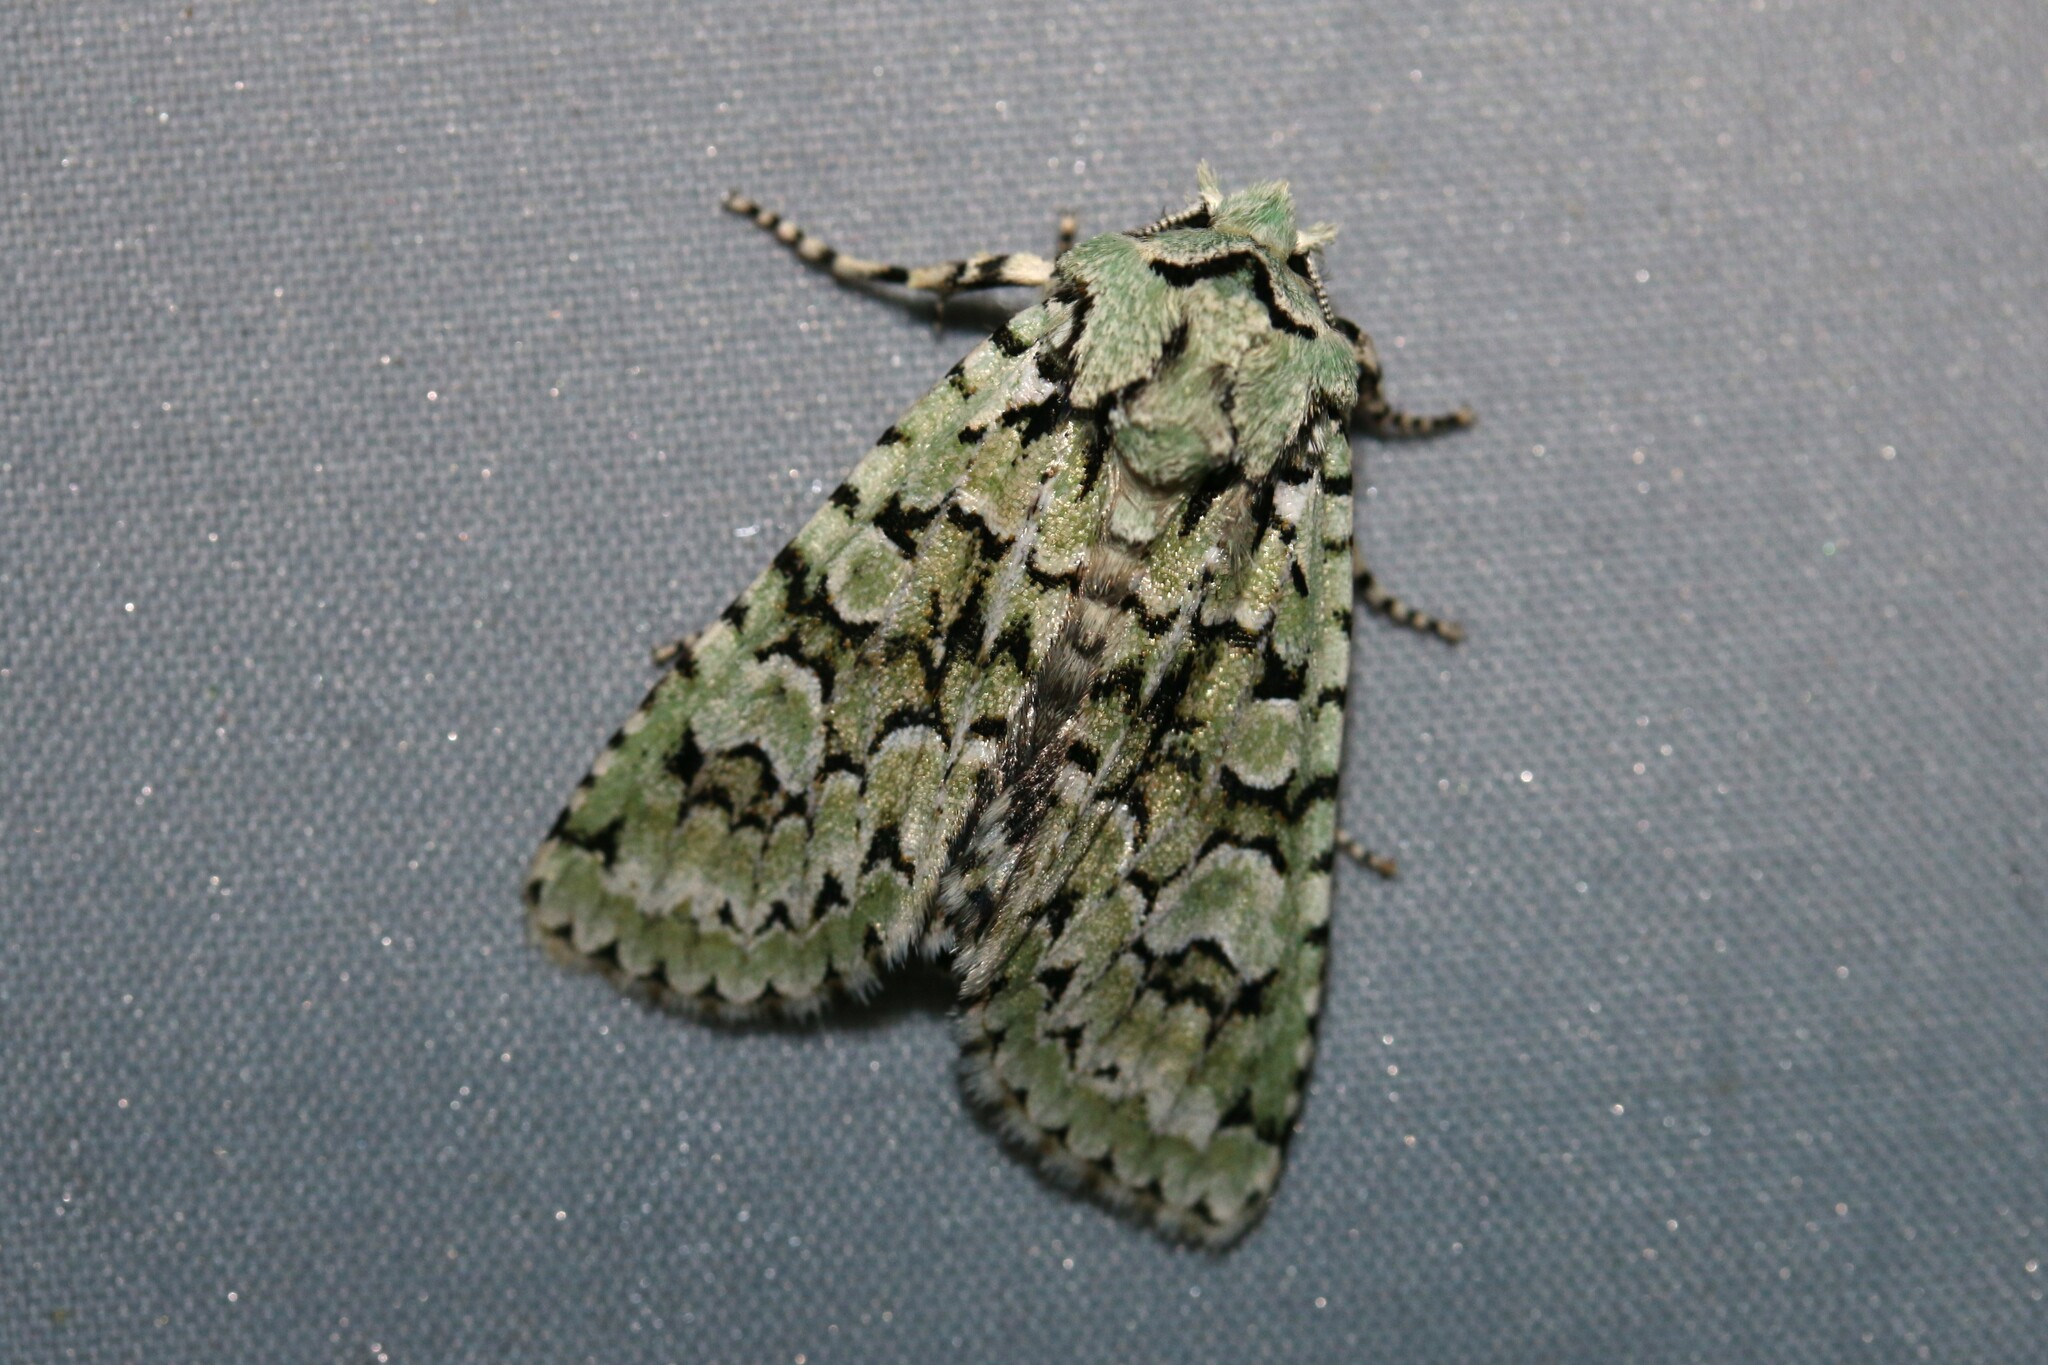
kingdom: Animalia
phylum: Arthropoda
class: Insecta
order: Lepidoptera
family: Noctuidae
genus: Griposia
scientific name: Griposia aprilina
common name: Merveille du jour
